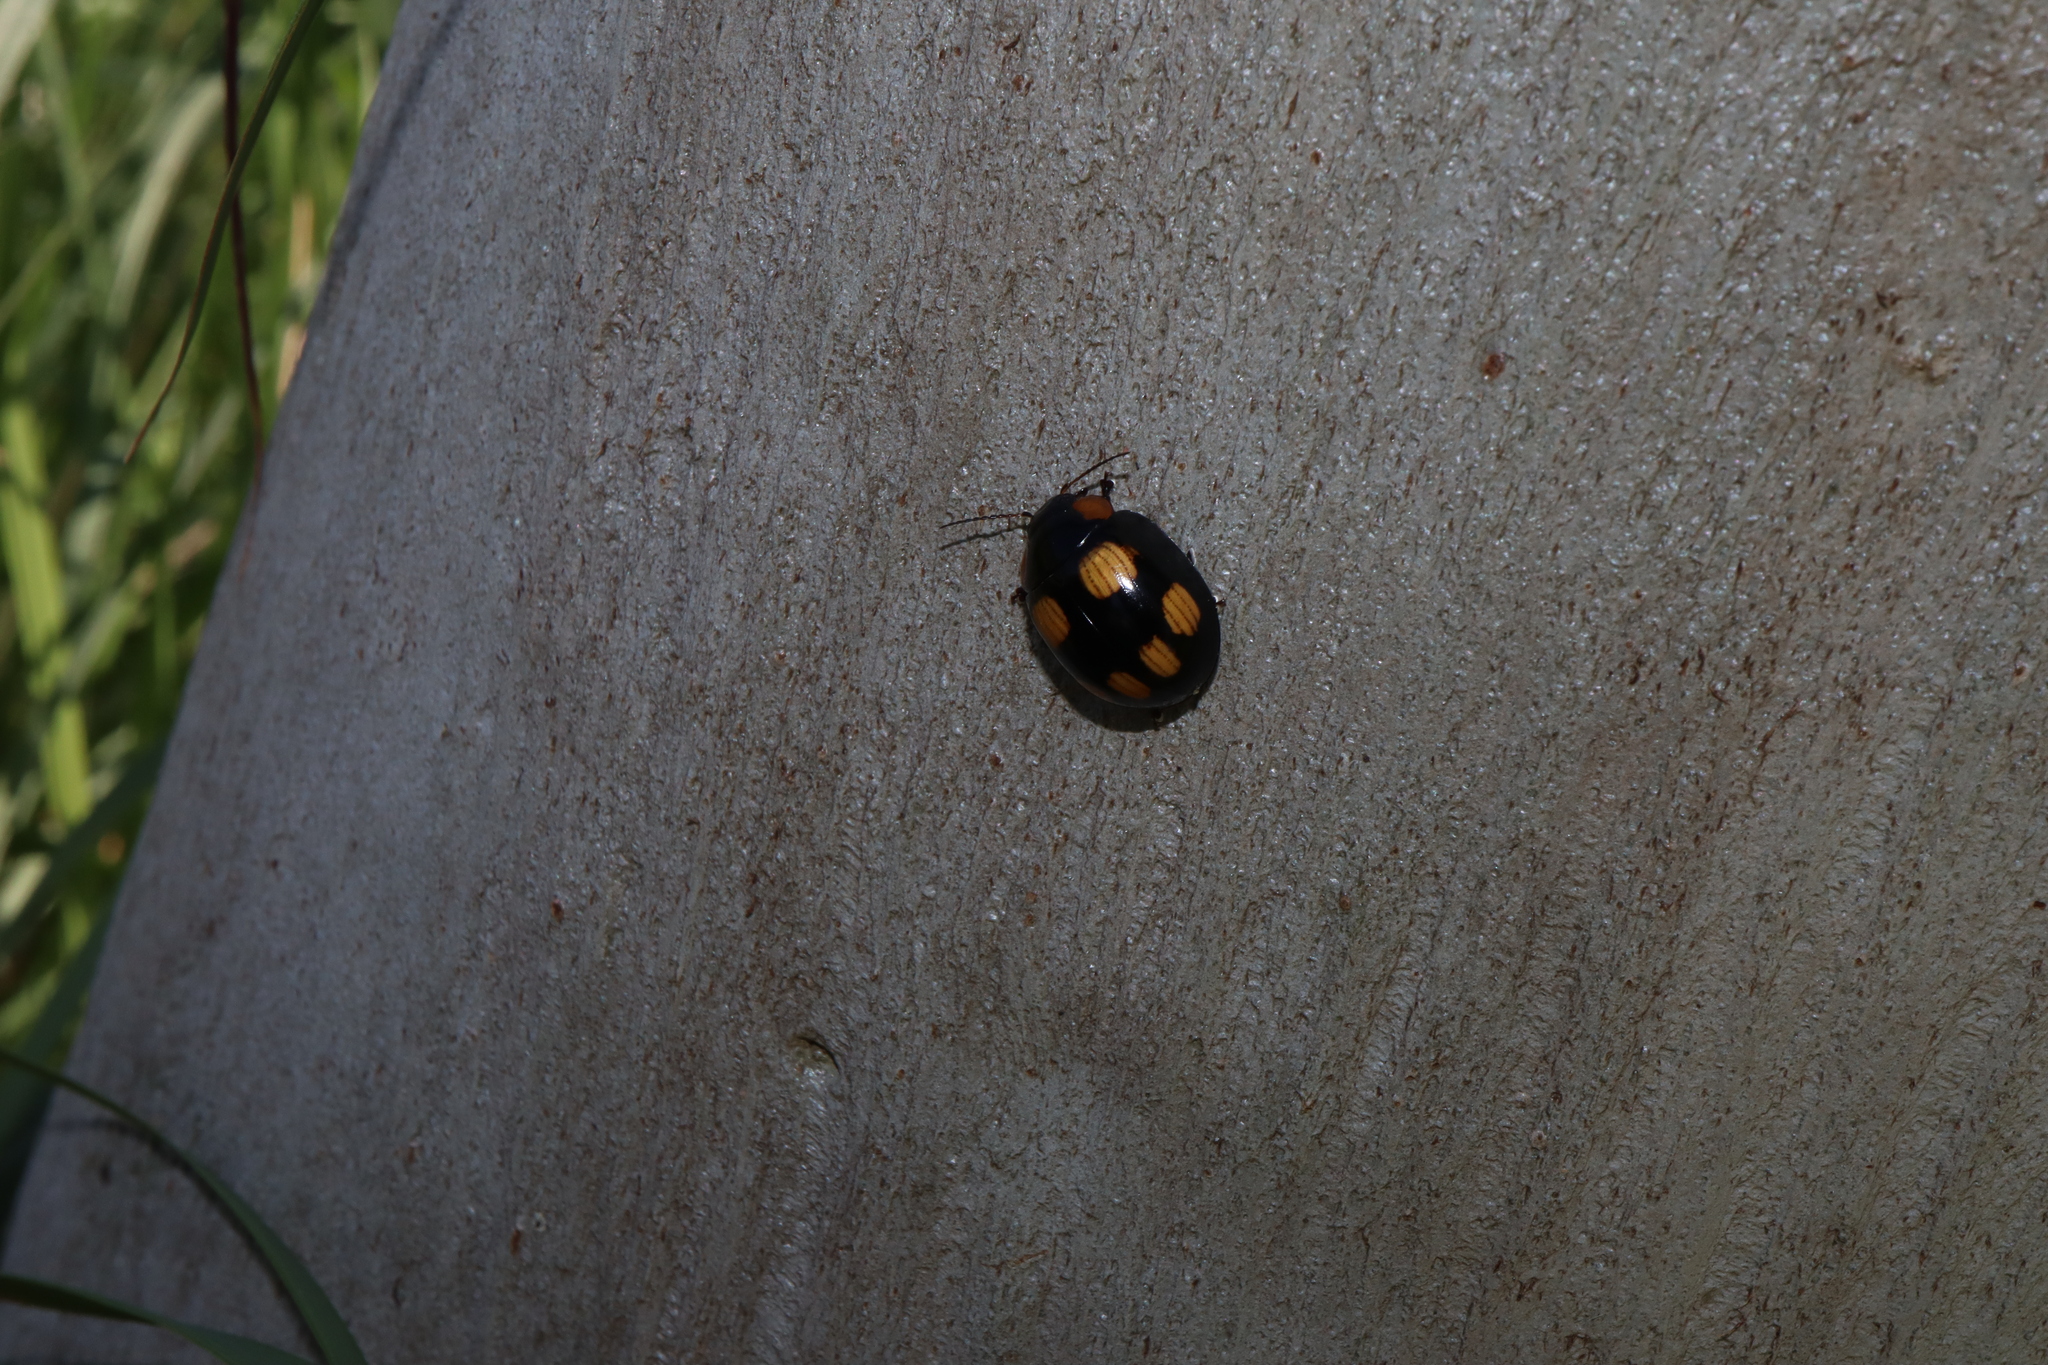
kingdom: Animalia
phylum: Arthropoda
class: Insecta
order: Coleoptera
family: Chrysomelidae
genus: Paropsisterna
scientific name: Paropsisterna
